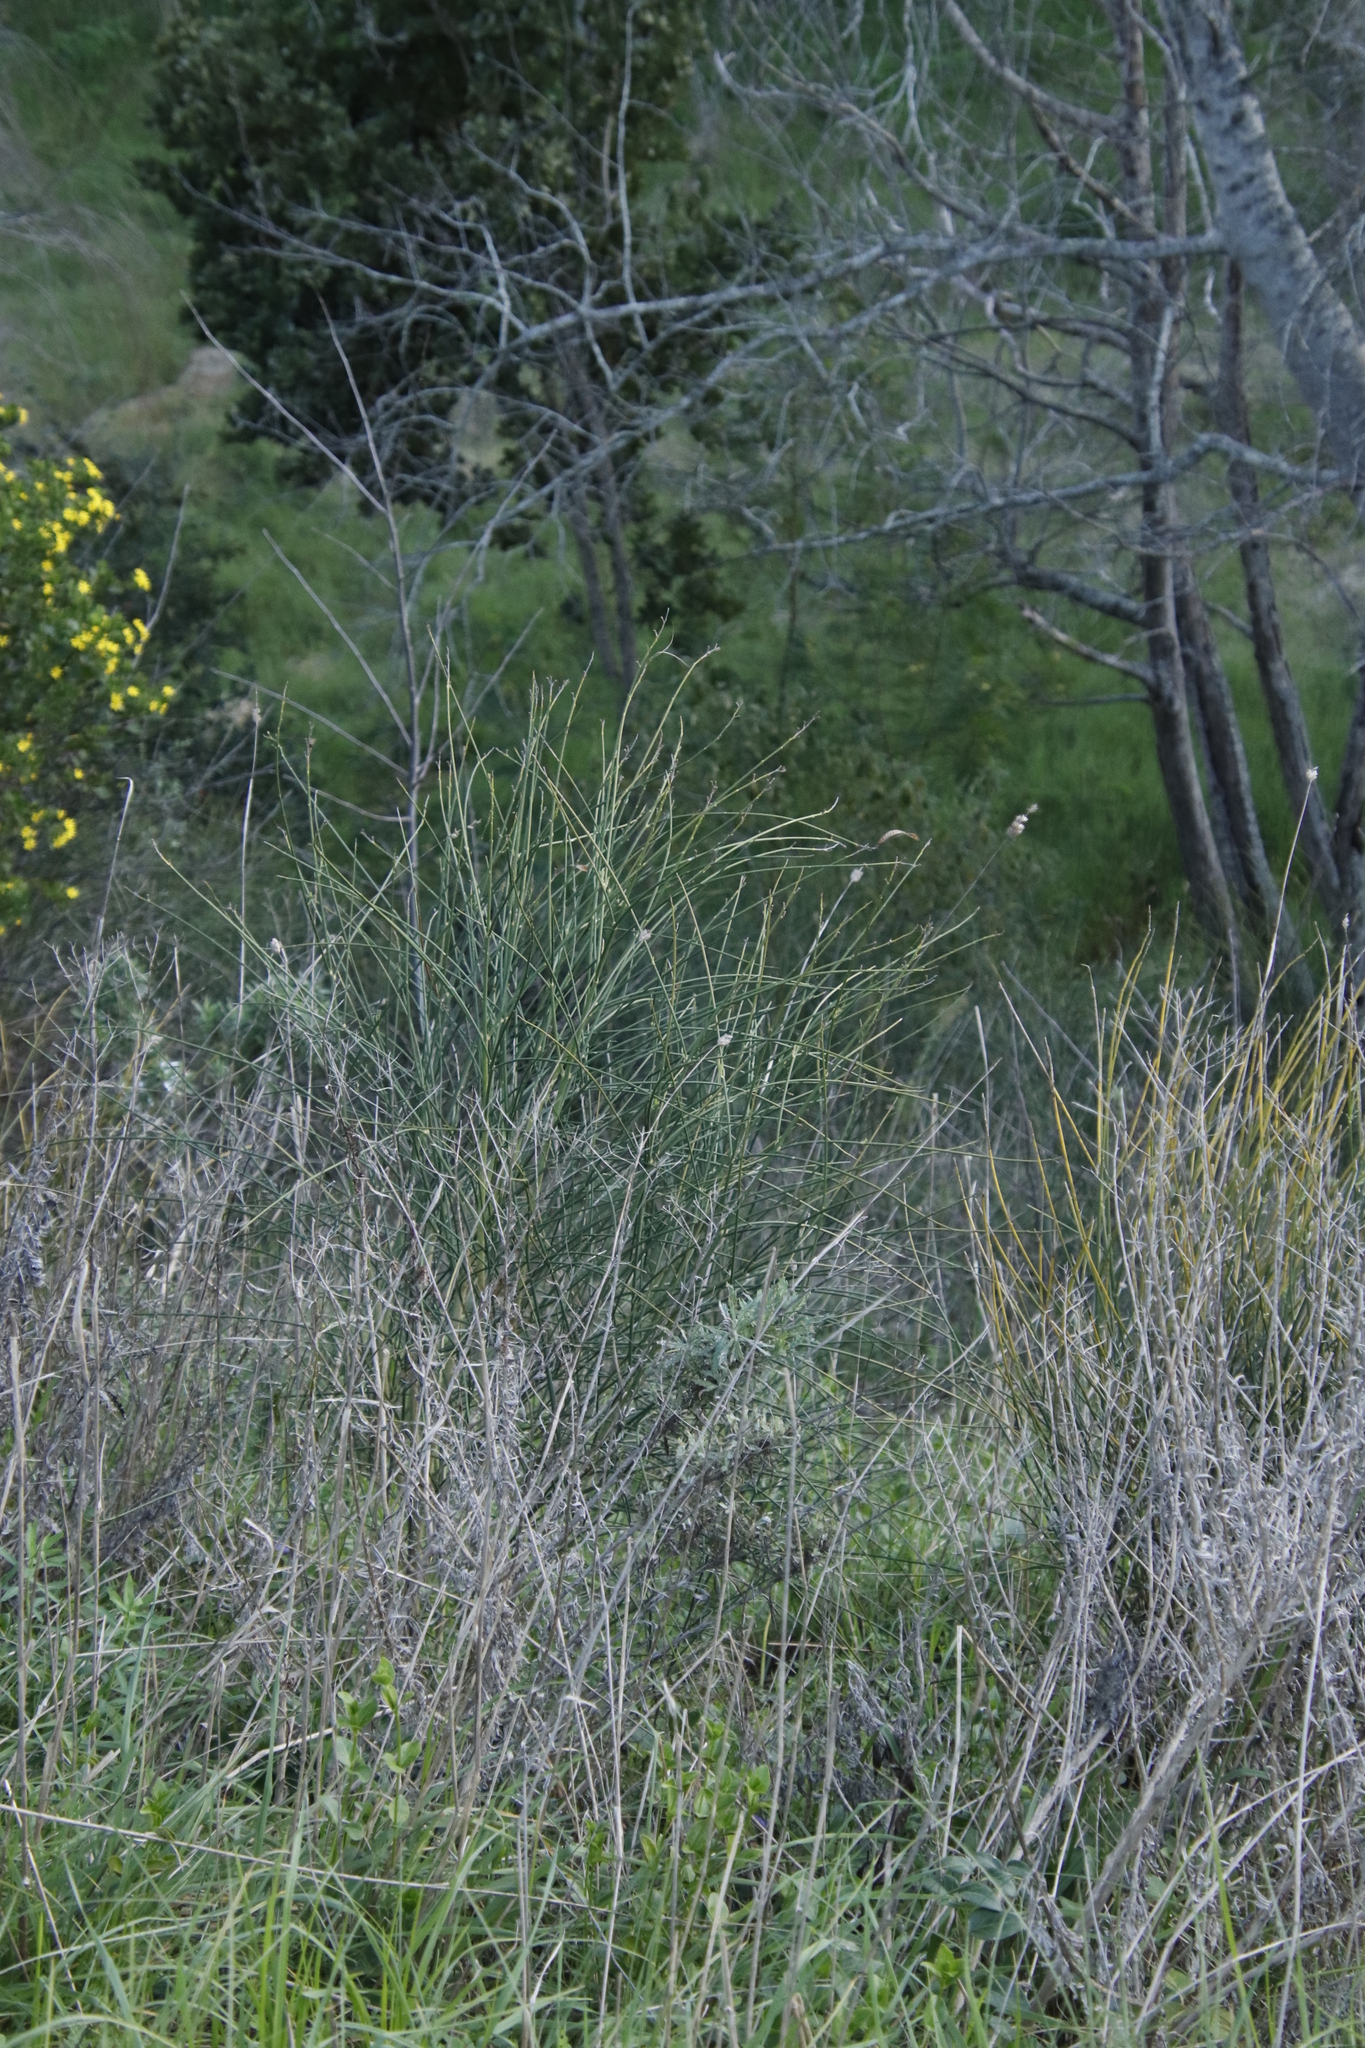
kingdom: Plantae
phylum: Tracheophyta
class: Magnoliopsida
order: Fabales
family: Fabaceae
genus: Spartium
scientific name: Spartium junceum
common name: Spanish broom
